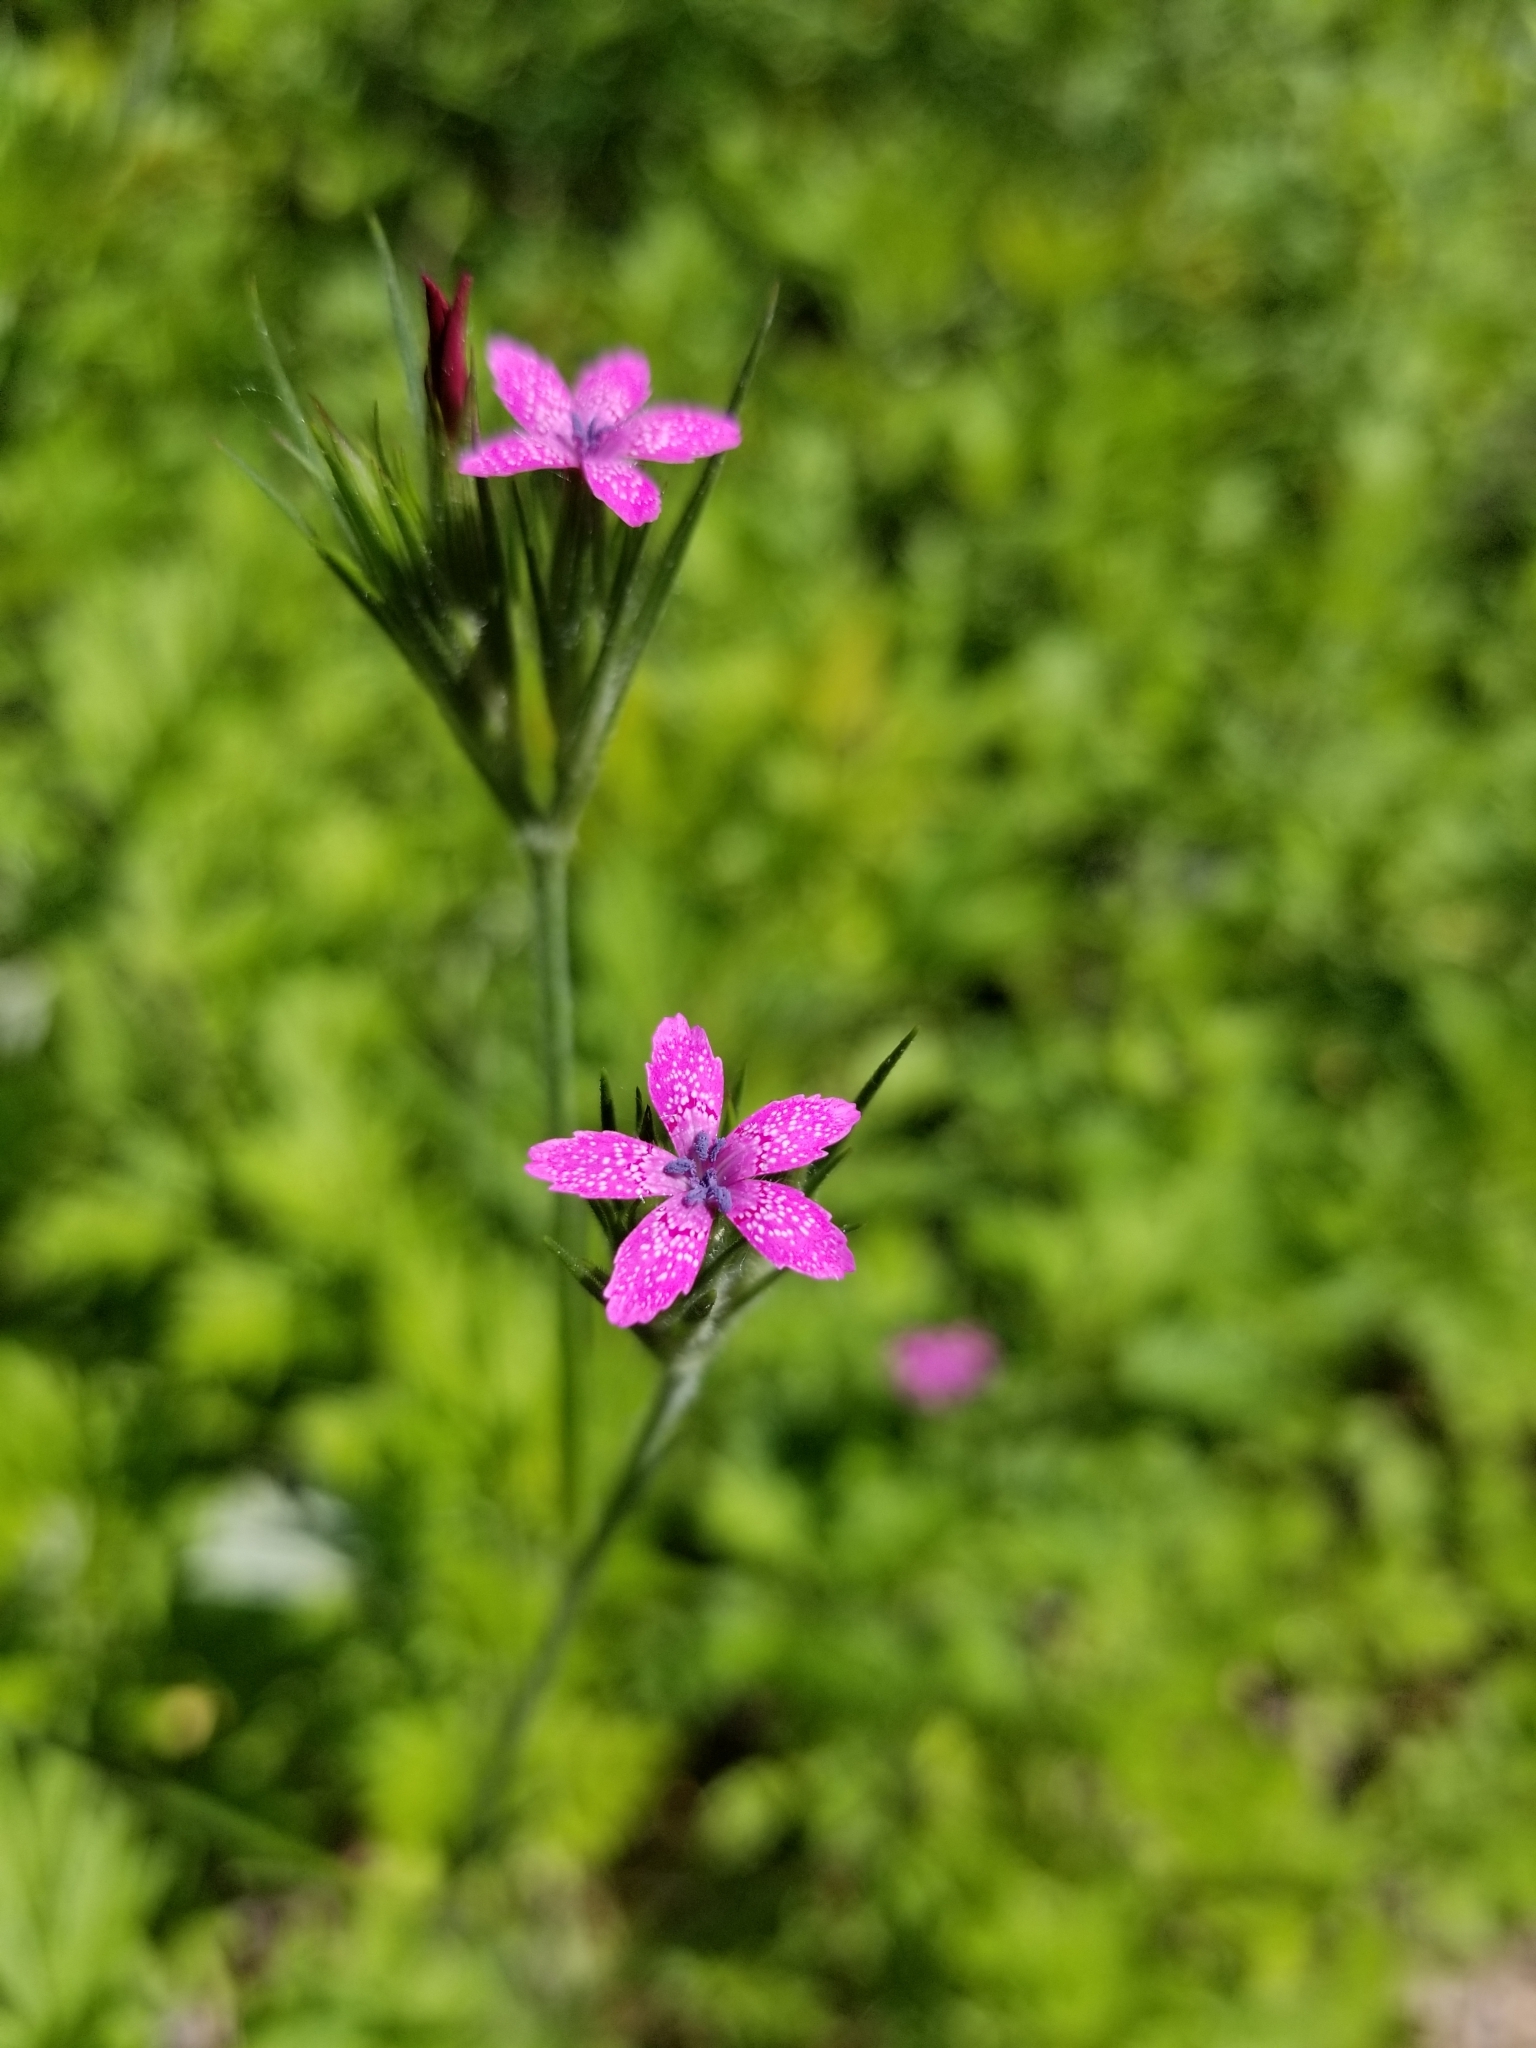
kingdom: Plantae
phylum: Tracheophyta
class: Magnoliopsida
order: Caryophyllales
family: Caryophyllaceae
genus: Dianthus
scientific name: Dianthus armeria
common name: Deptford pink
